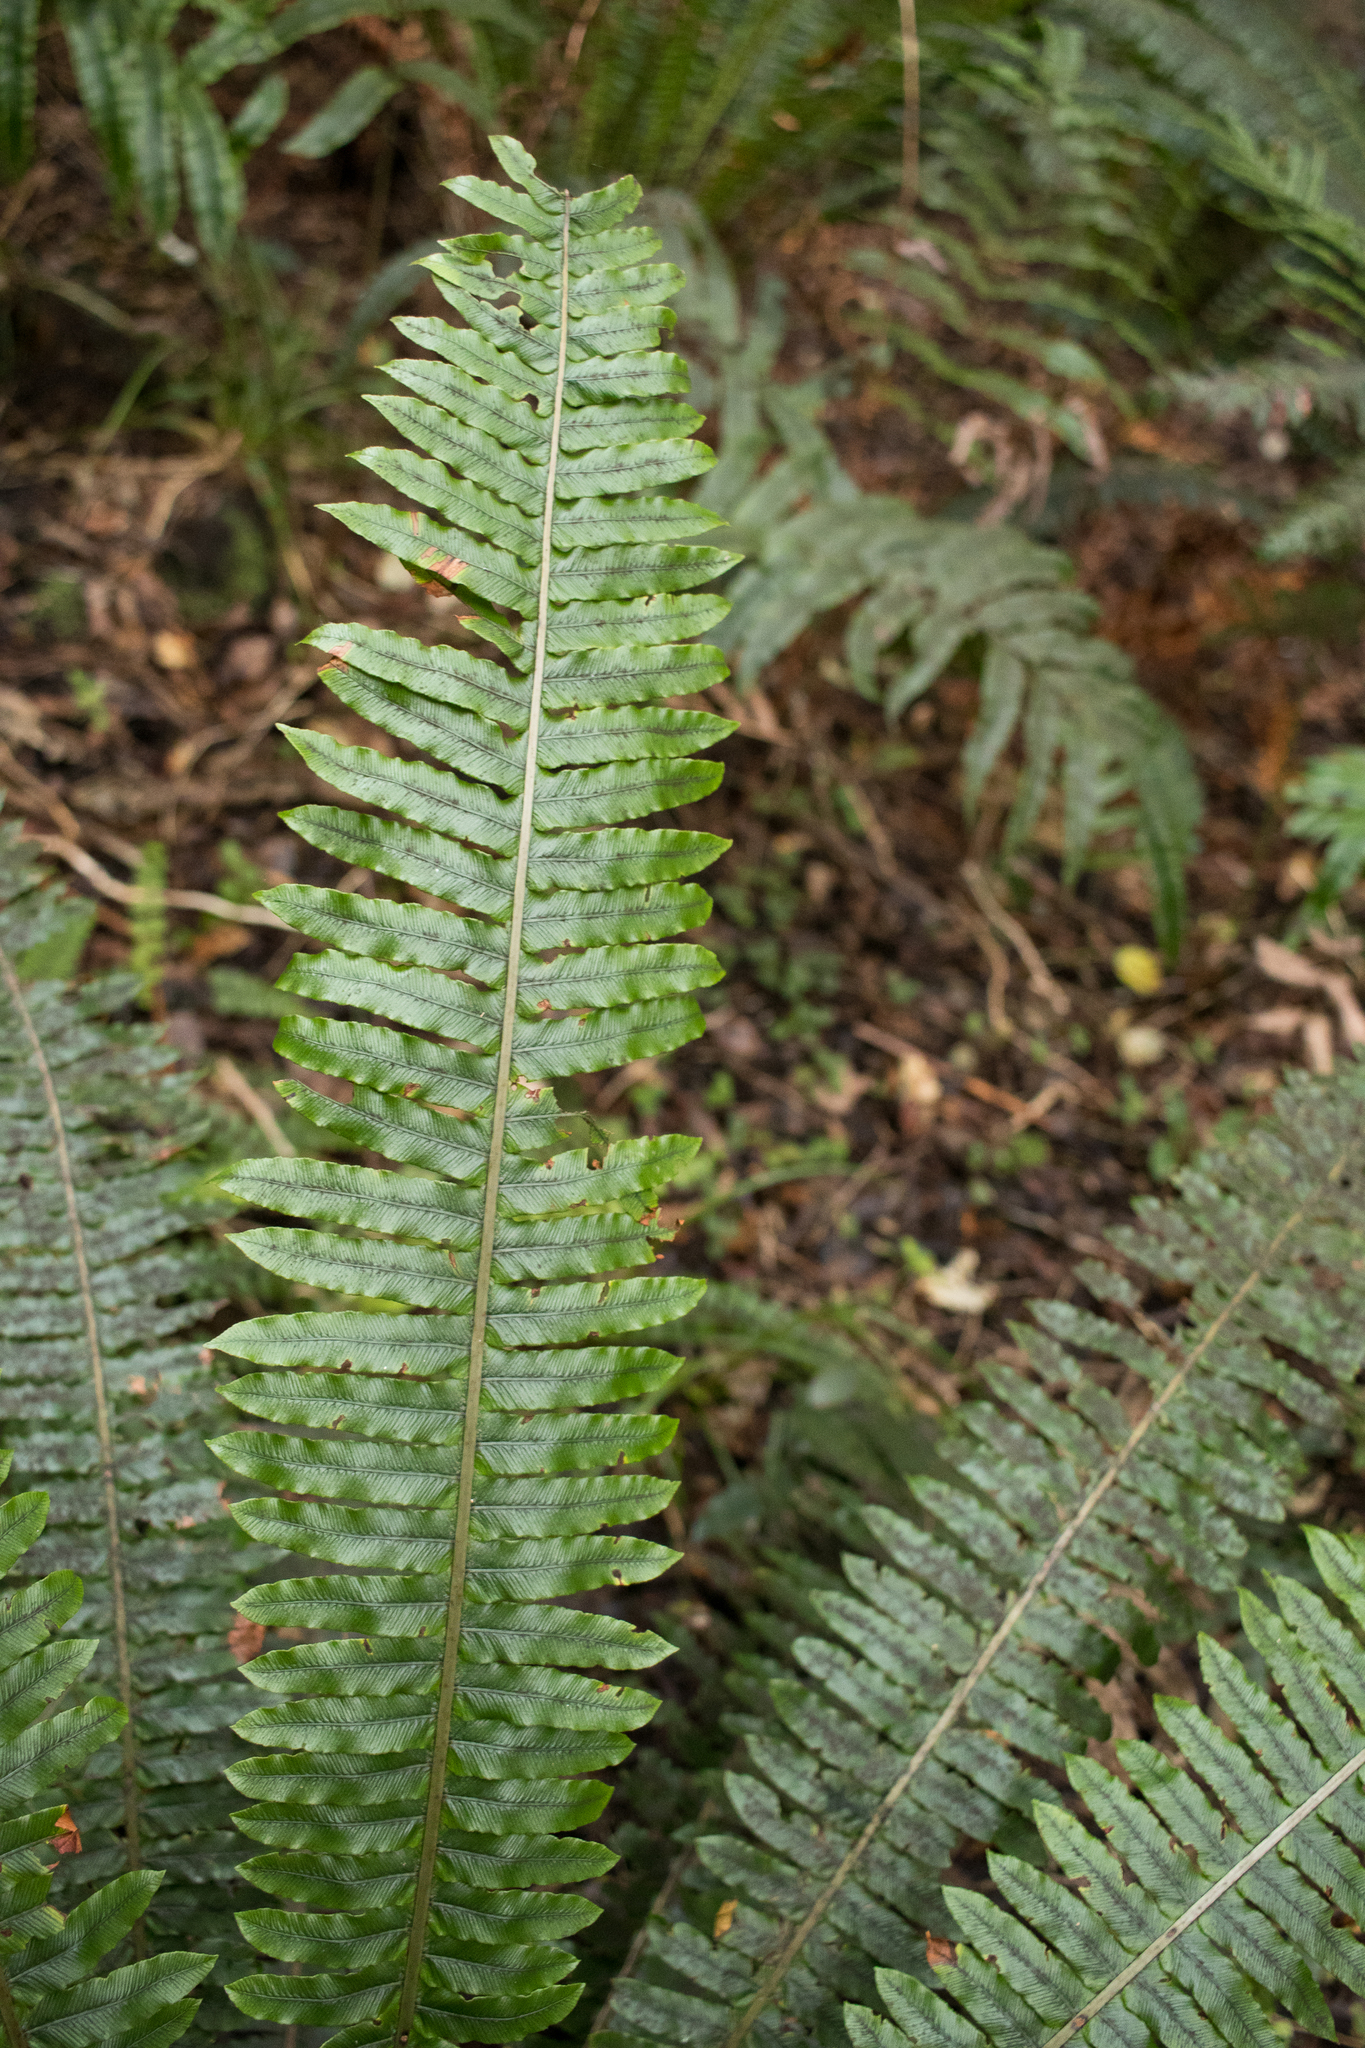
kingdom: Plantae
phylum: Tracheophyta
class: Polypodiopsida
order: Polypodiales
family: Blechnaceae
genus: Lomaria
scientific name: Lomaria discolor
